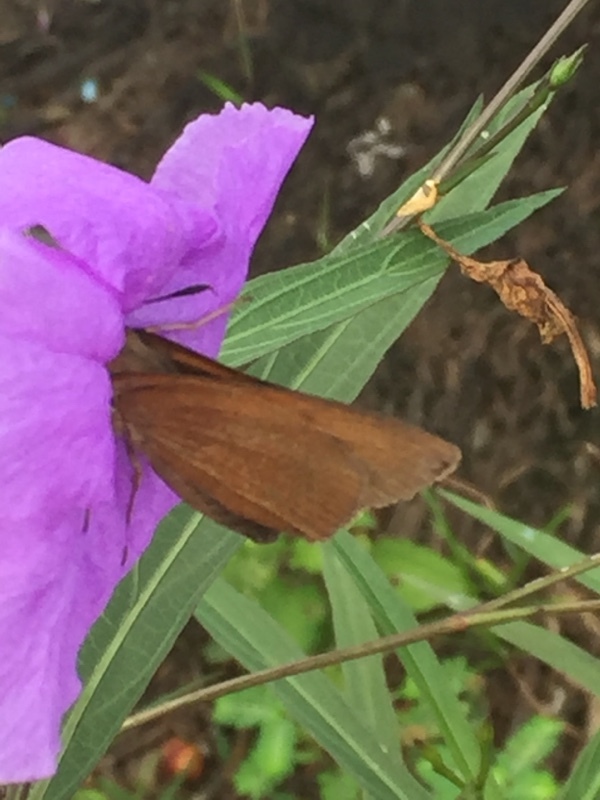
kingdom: Animalia
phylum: Arthropoda
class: Insecta
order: Lepidoptera
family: Hesperiidae
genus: Asbolis
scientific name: Asbolis capucinus
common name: Monk skipper
